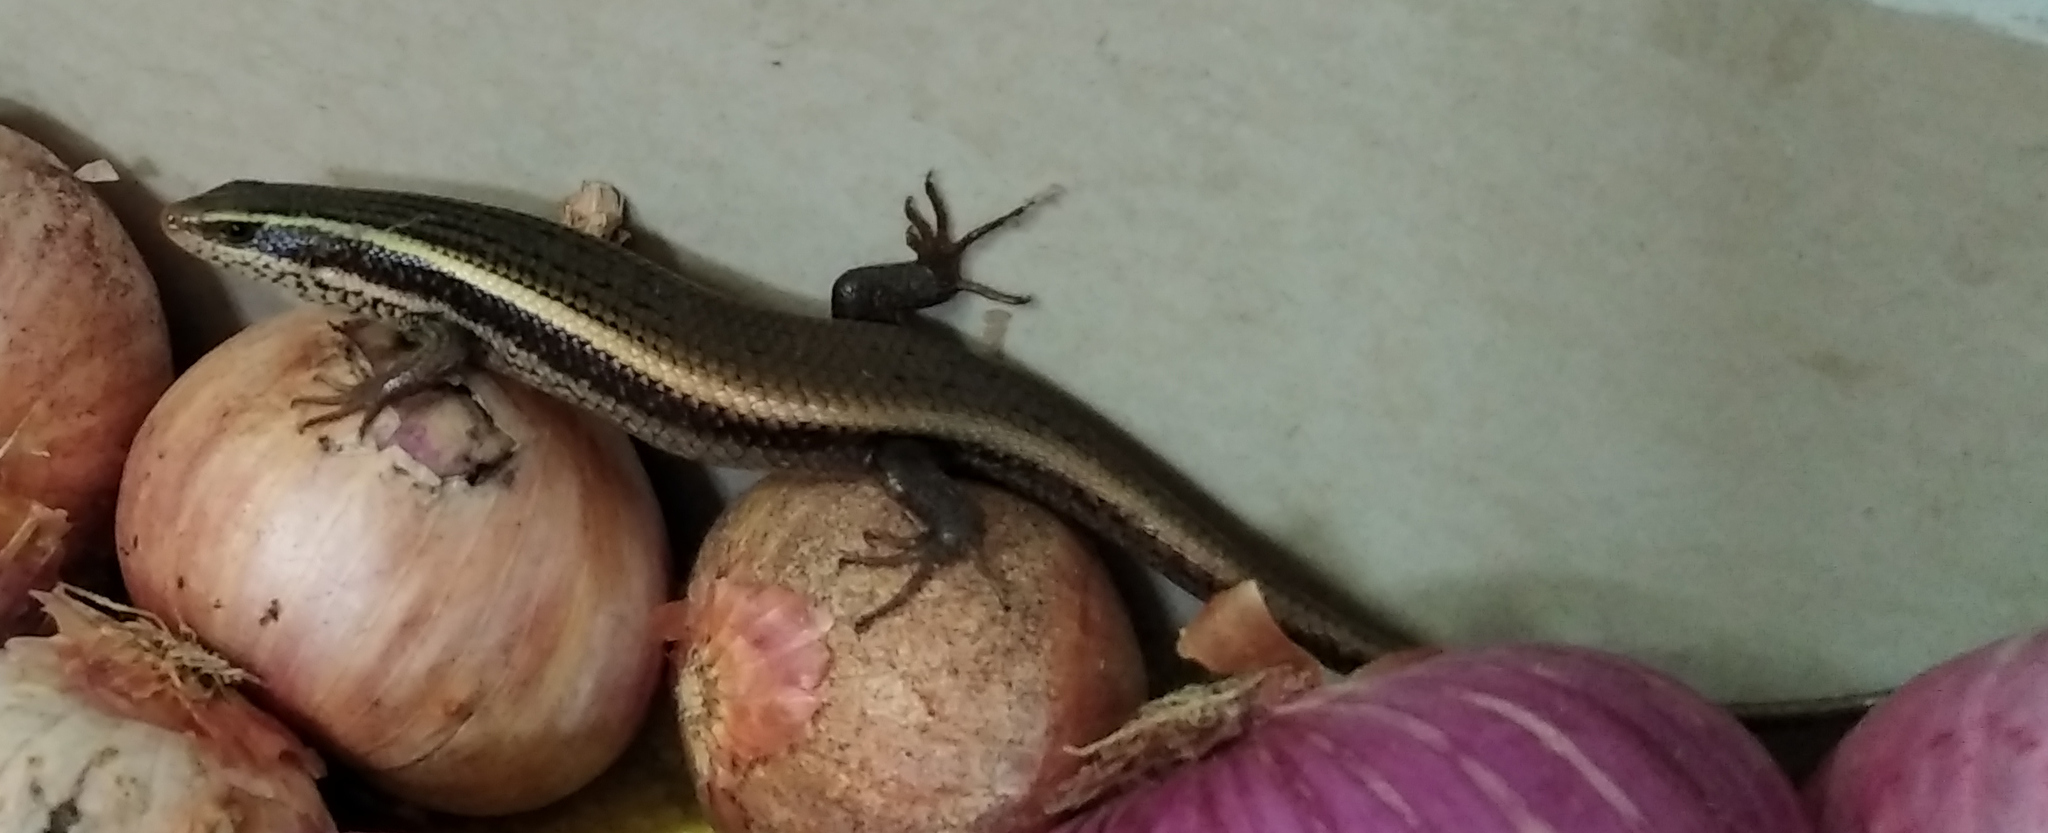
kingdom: Animalia
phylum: Chordata
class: Squamata
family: Scincidae
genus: Eutropis
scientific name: Eutropis carinata
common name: Keeled indian mabuya
